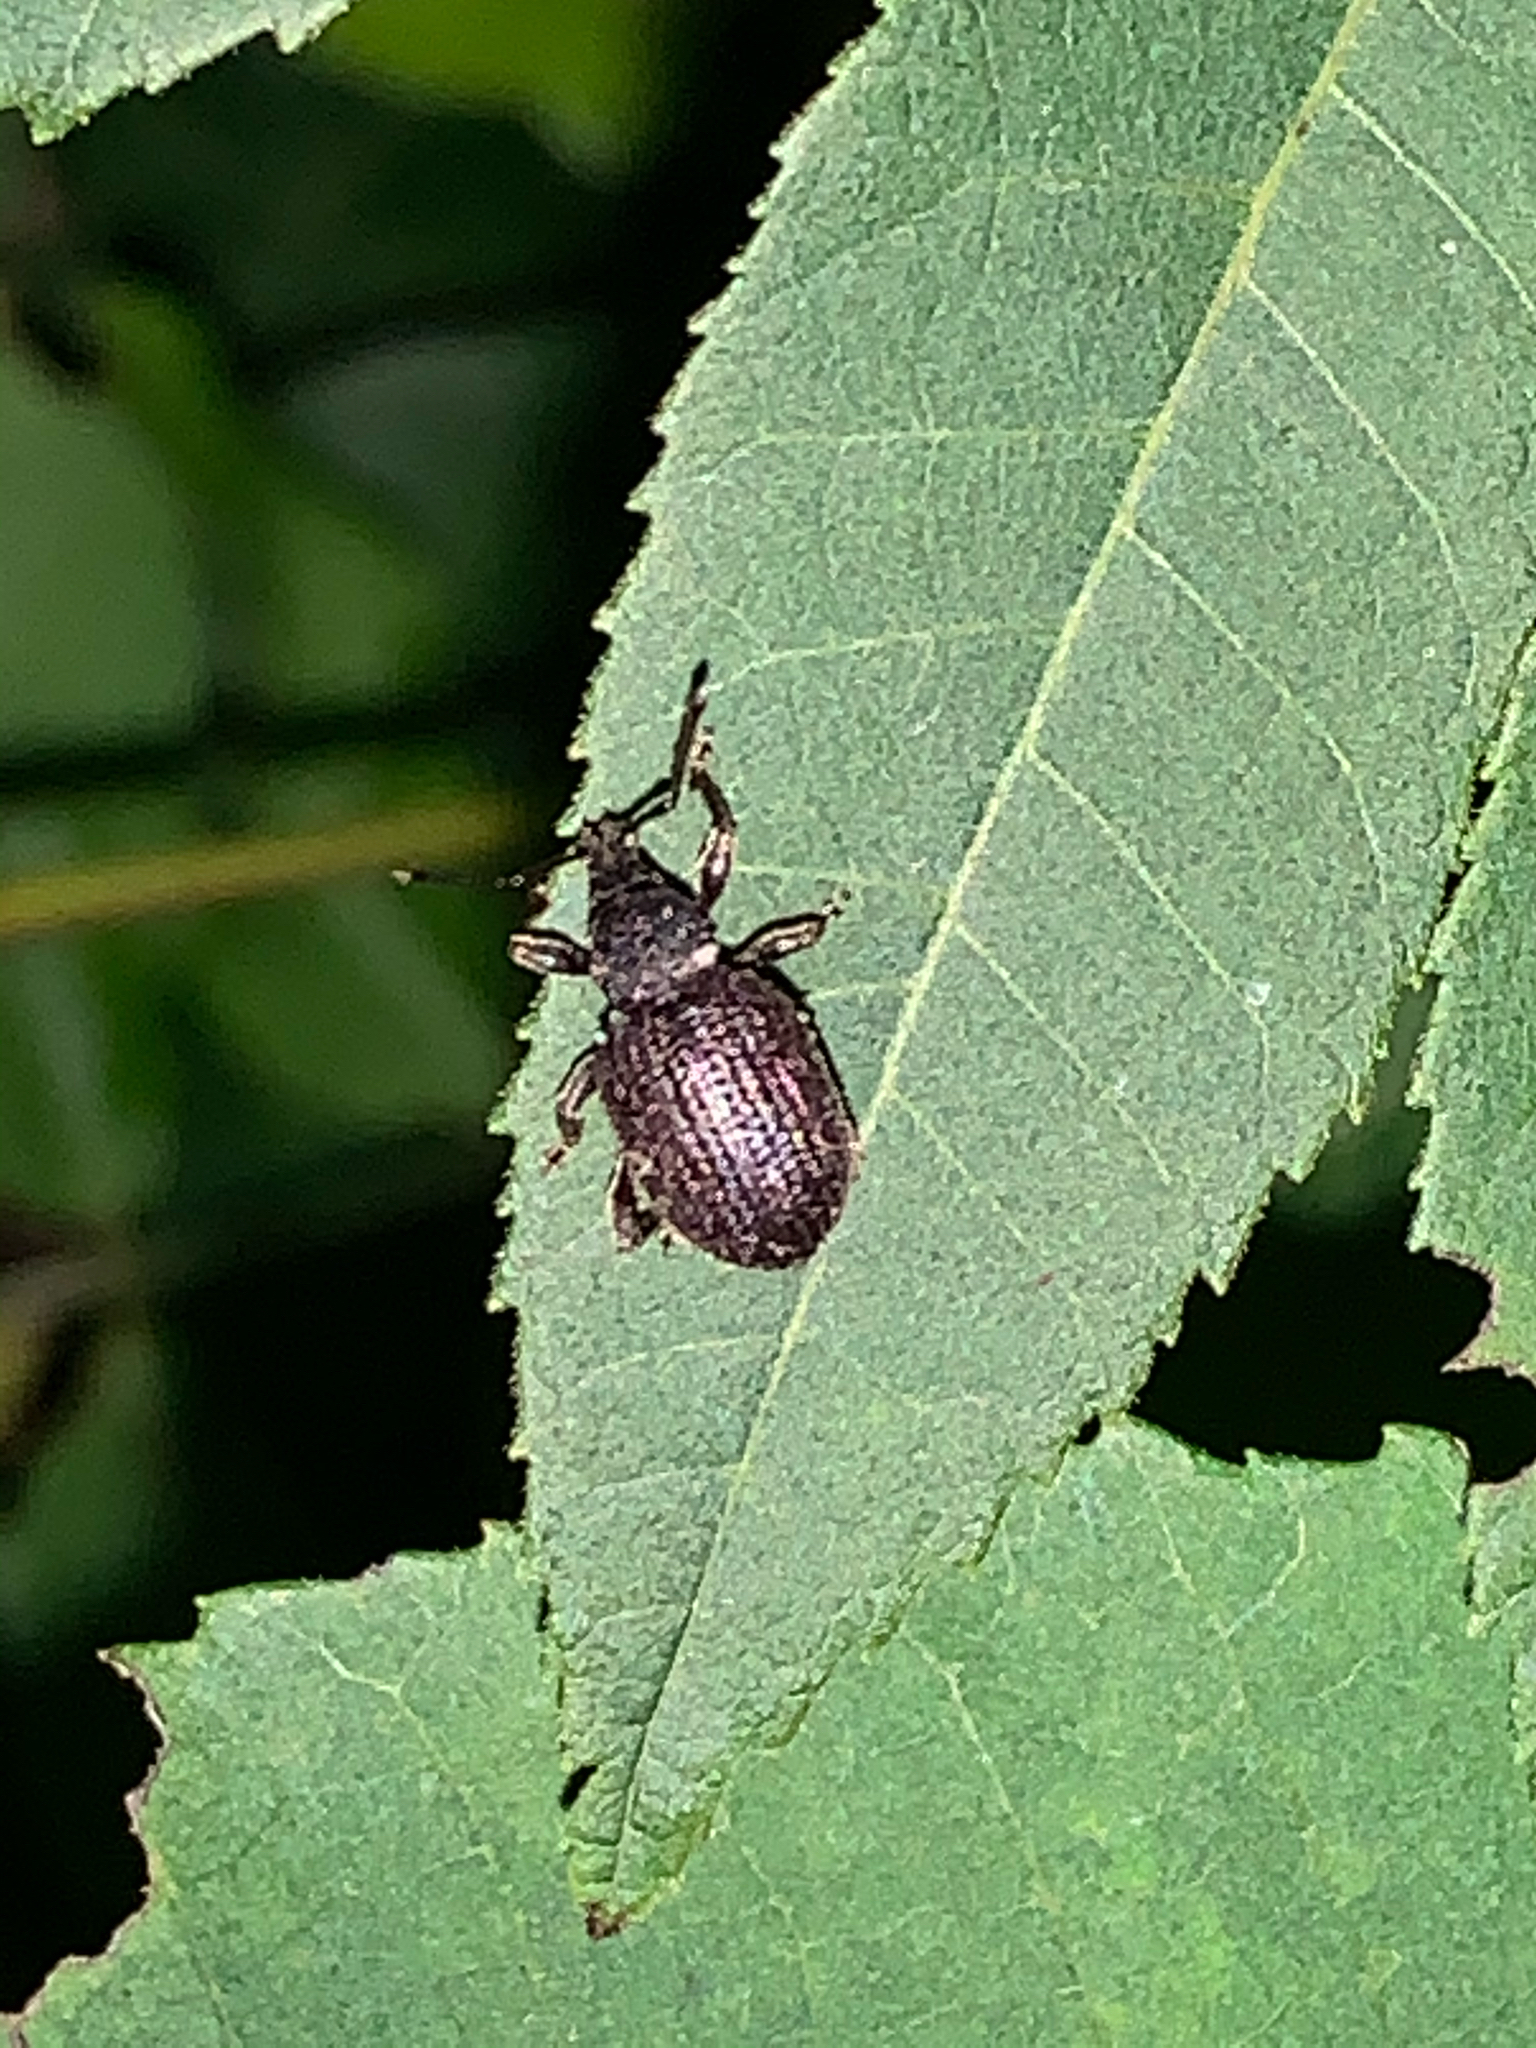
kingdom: Animalia
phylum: Arthropoda
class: Insecta
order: Coleoptera
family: Curculionidae
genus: Otiorhynchus
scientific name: Otiorhynchus rugosostriatus
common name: Weevil
